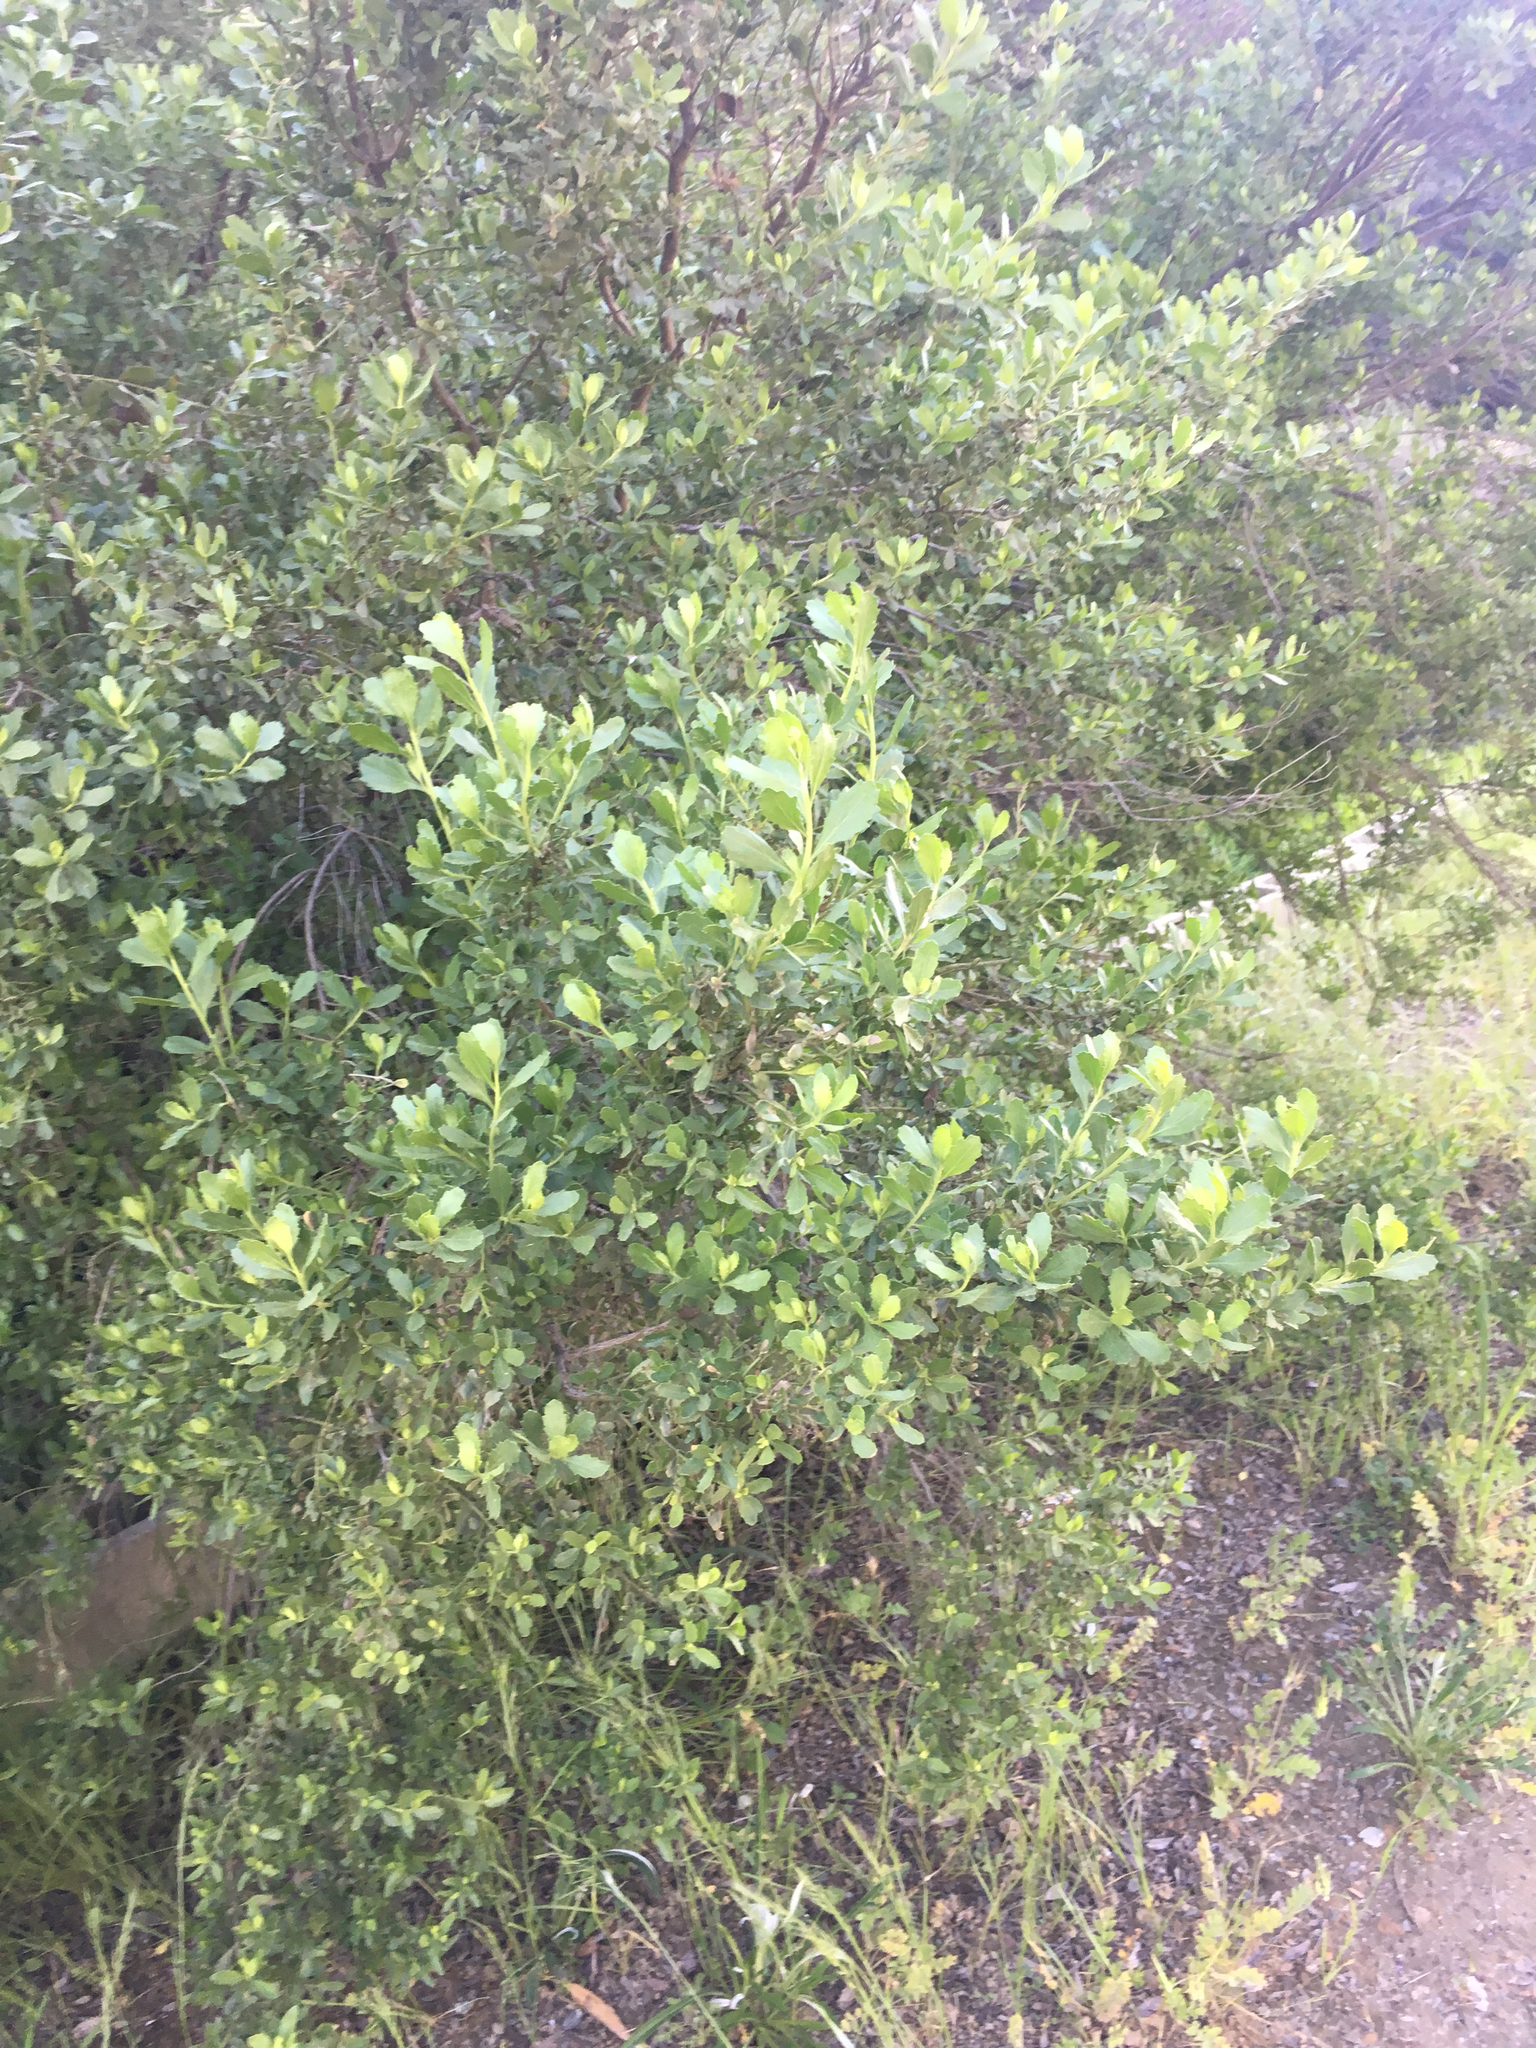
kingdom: Plantae
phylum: Tracheophyta
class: Magnoliopsida
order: Asterales
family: Asteraceae
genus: Baccharis
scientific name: Baccharis pilularis
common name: Coyotebrush
